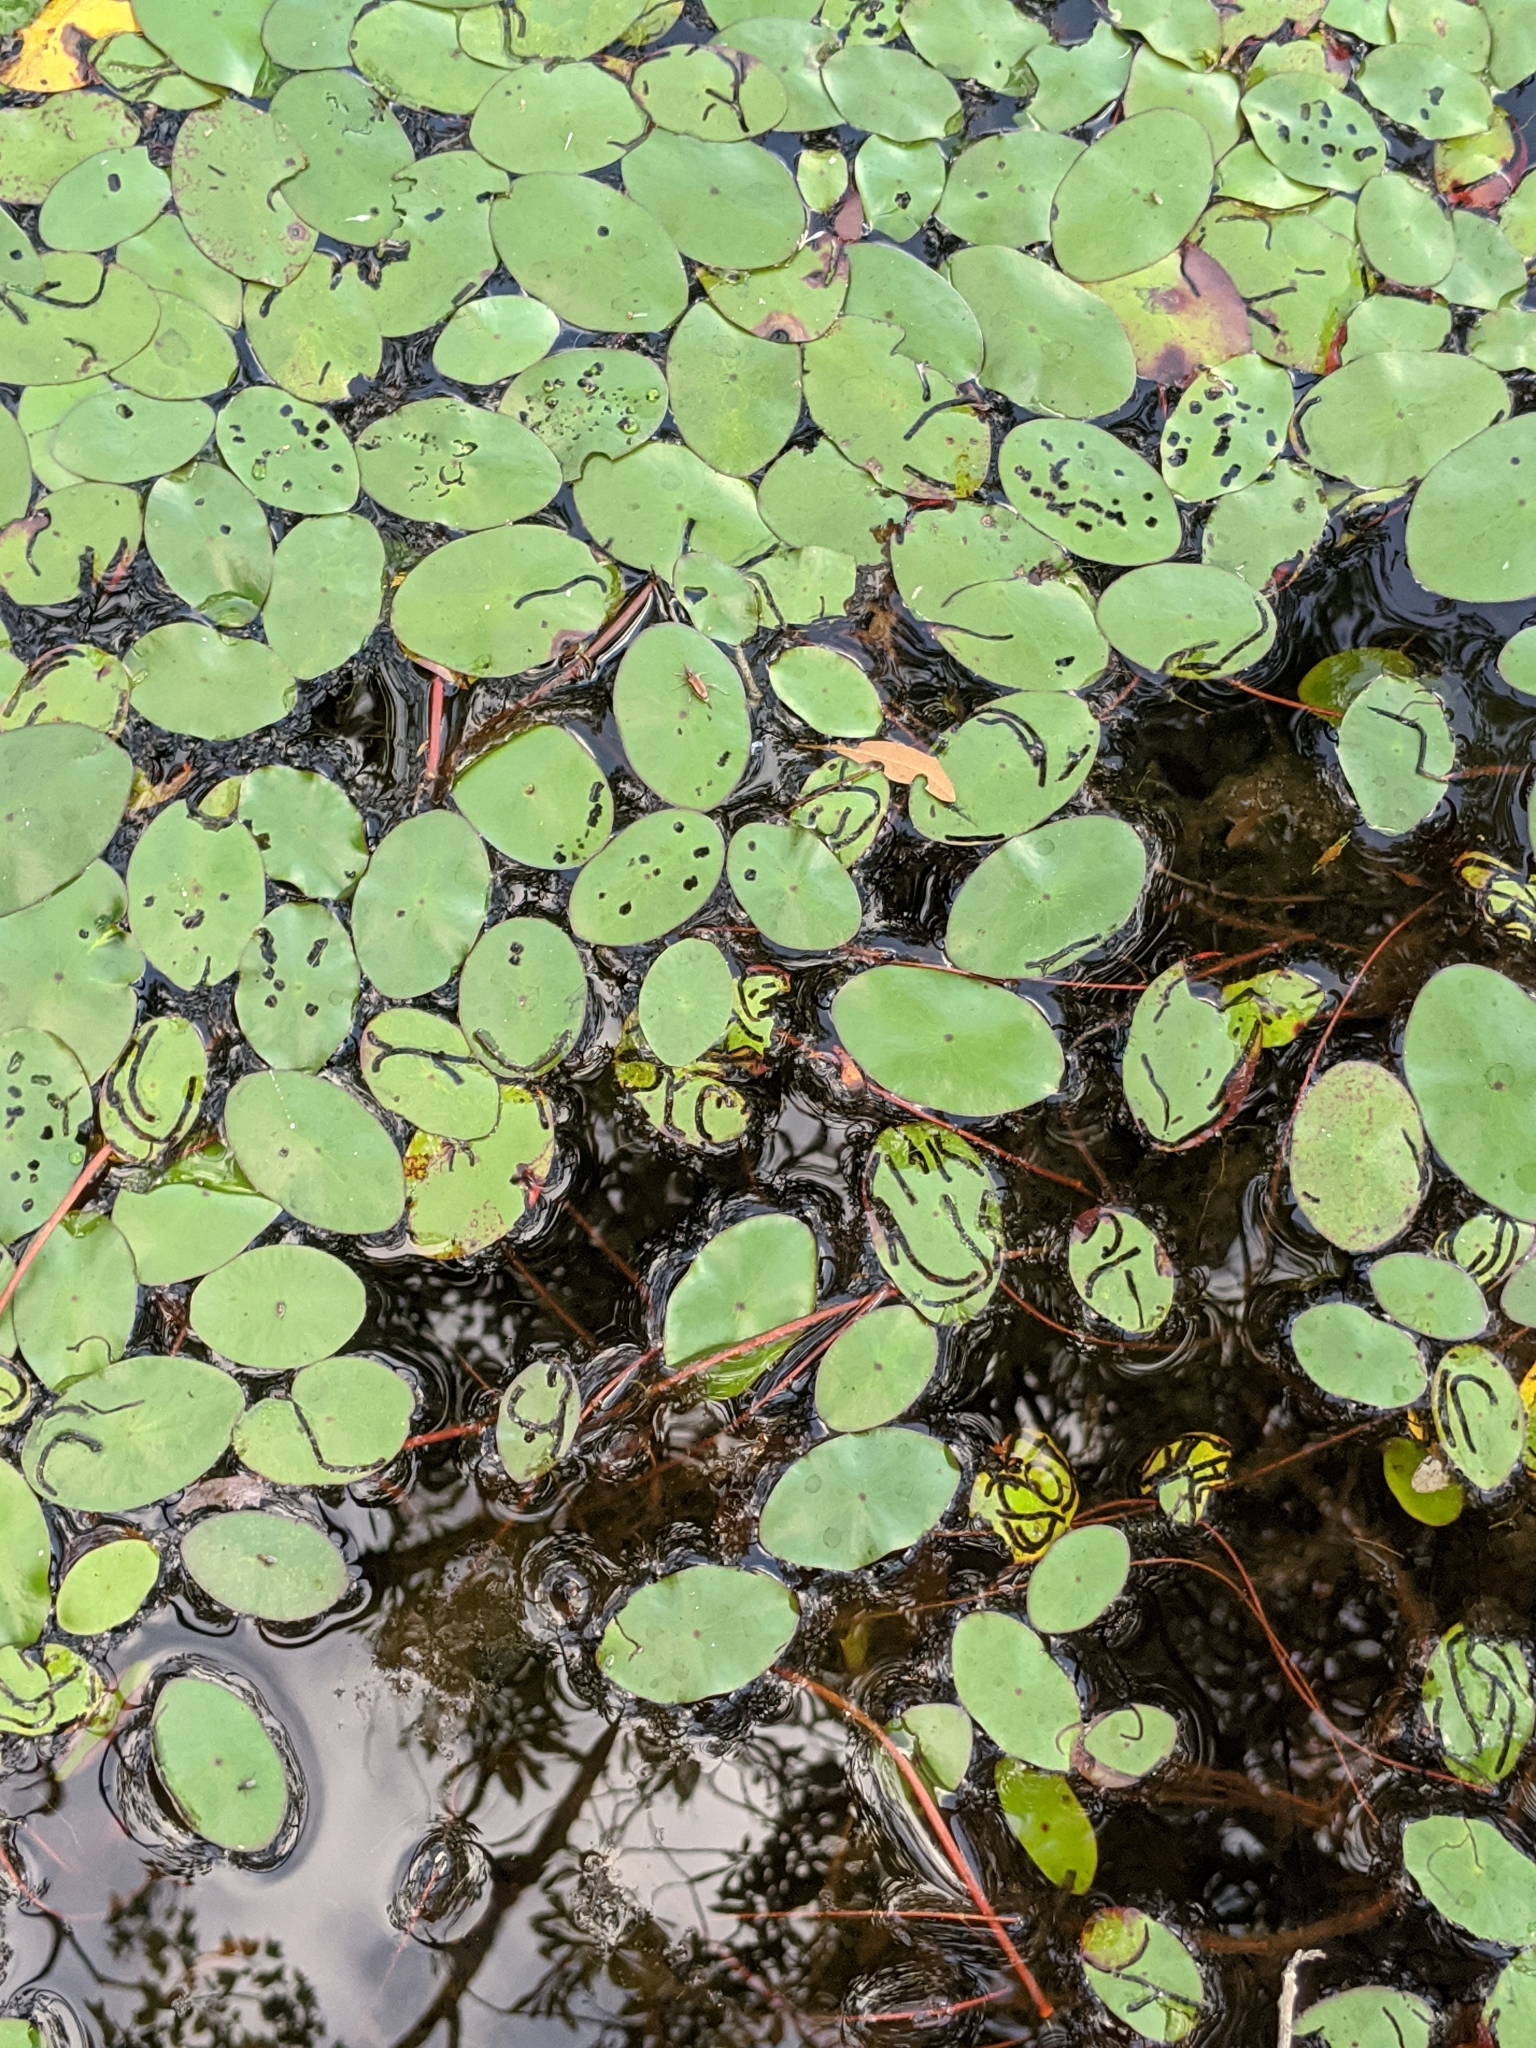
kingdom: Animalia
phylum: Arthropoda
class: Insecta
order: Diptera
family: Chironomidae
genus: Polypedilum
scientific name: Polypedilum braseniae
